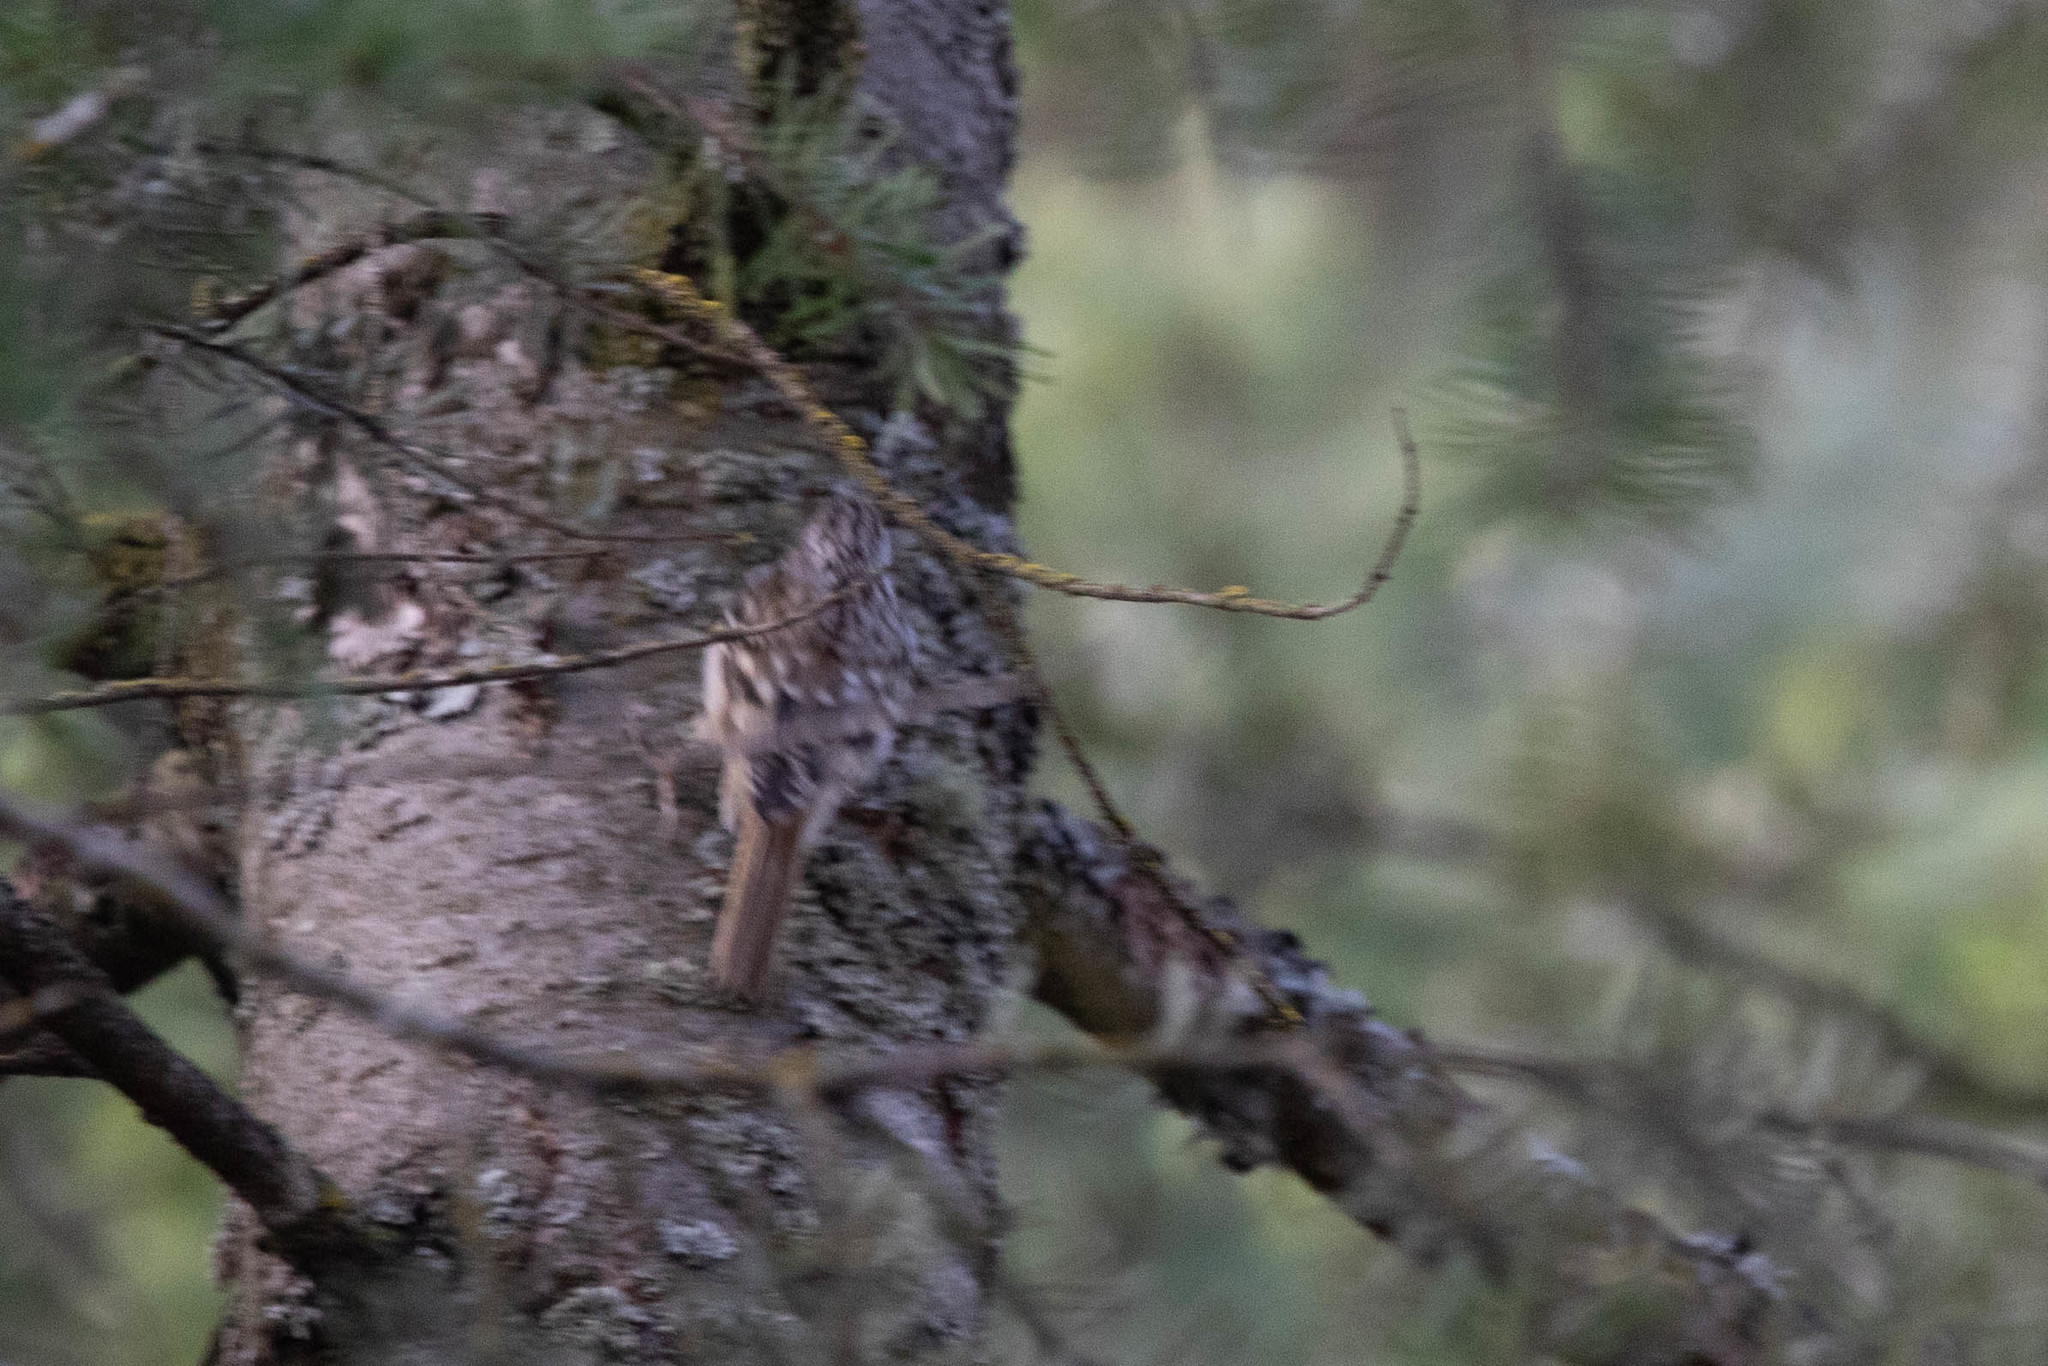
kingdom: Animalia
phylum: Chordata
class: Aves
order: Passeriformes
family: Certhiidae
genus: Certhia
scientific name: Certhia americana
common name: Brown creeper
